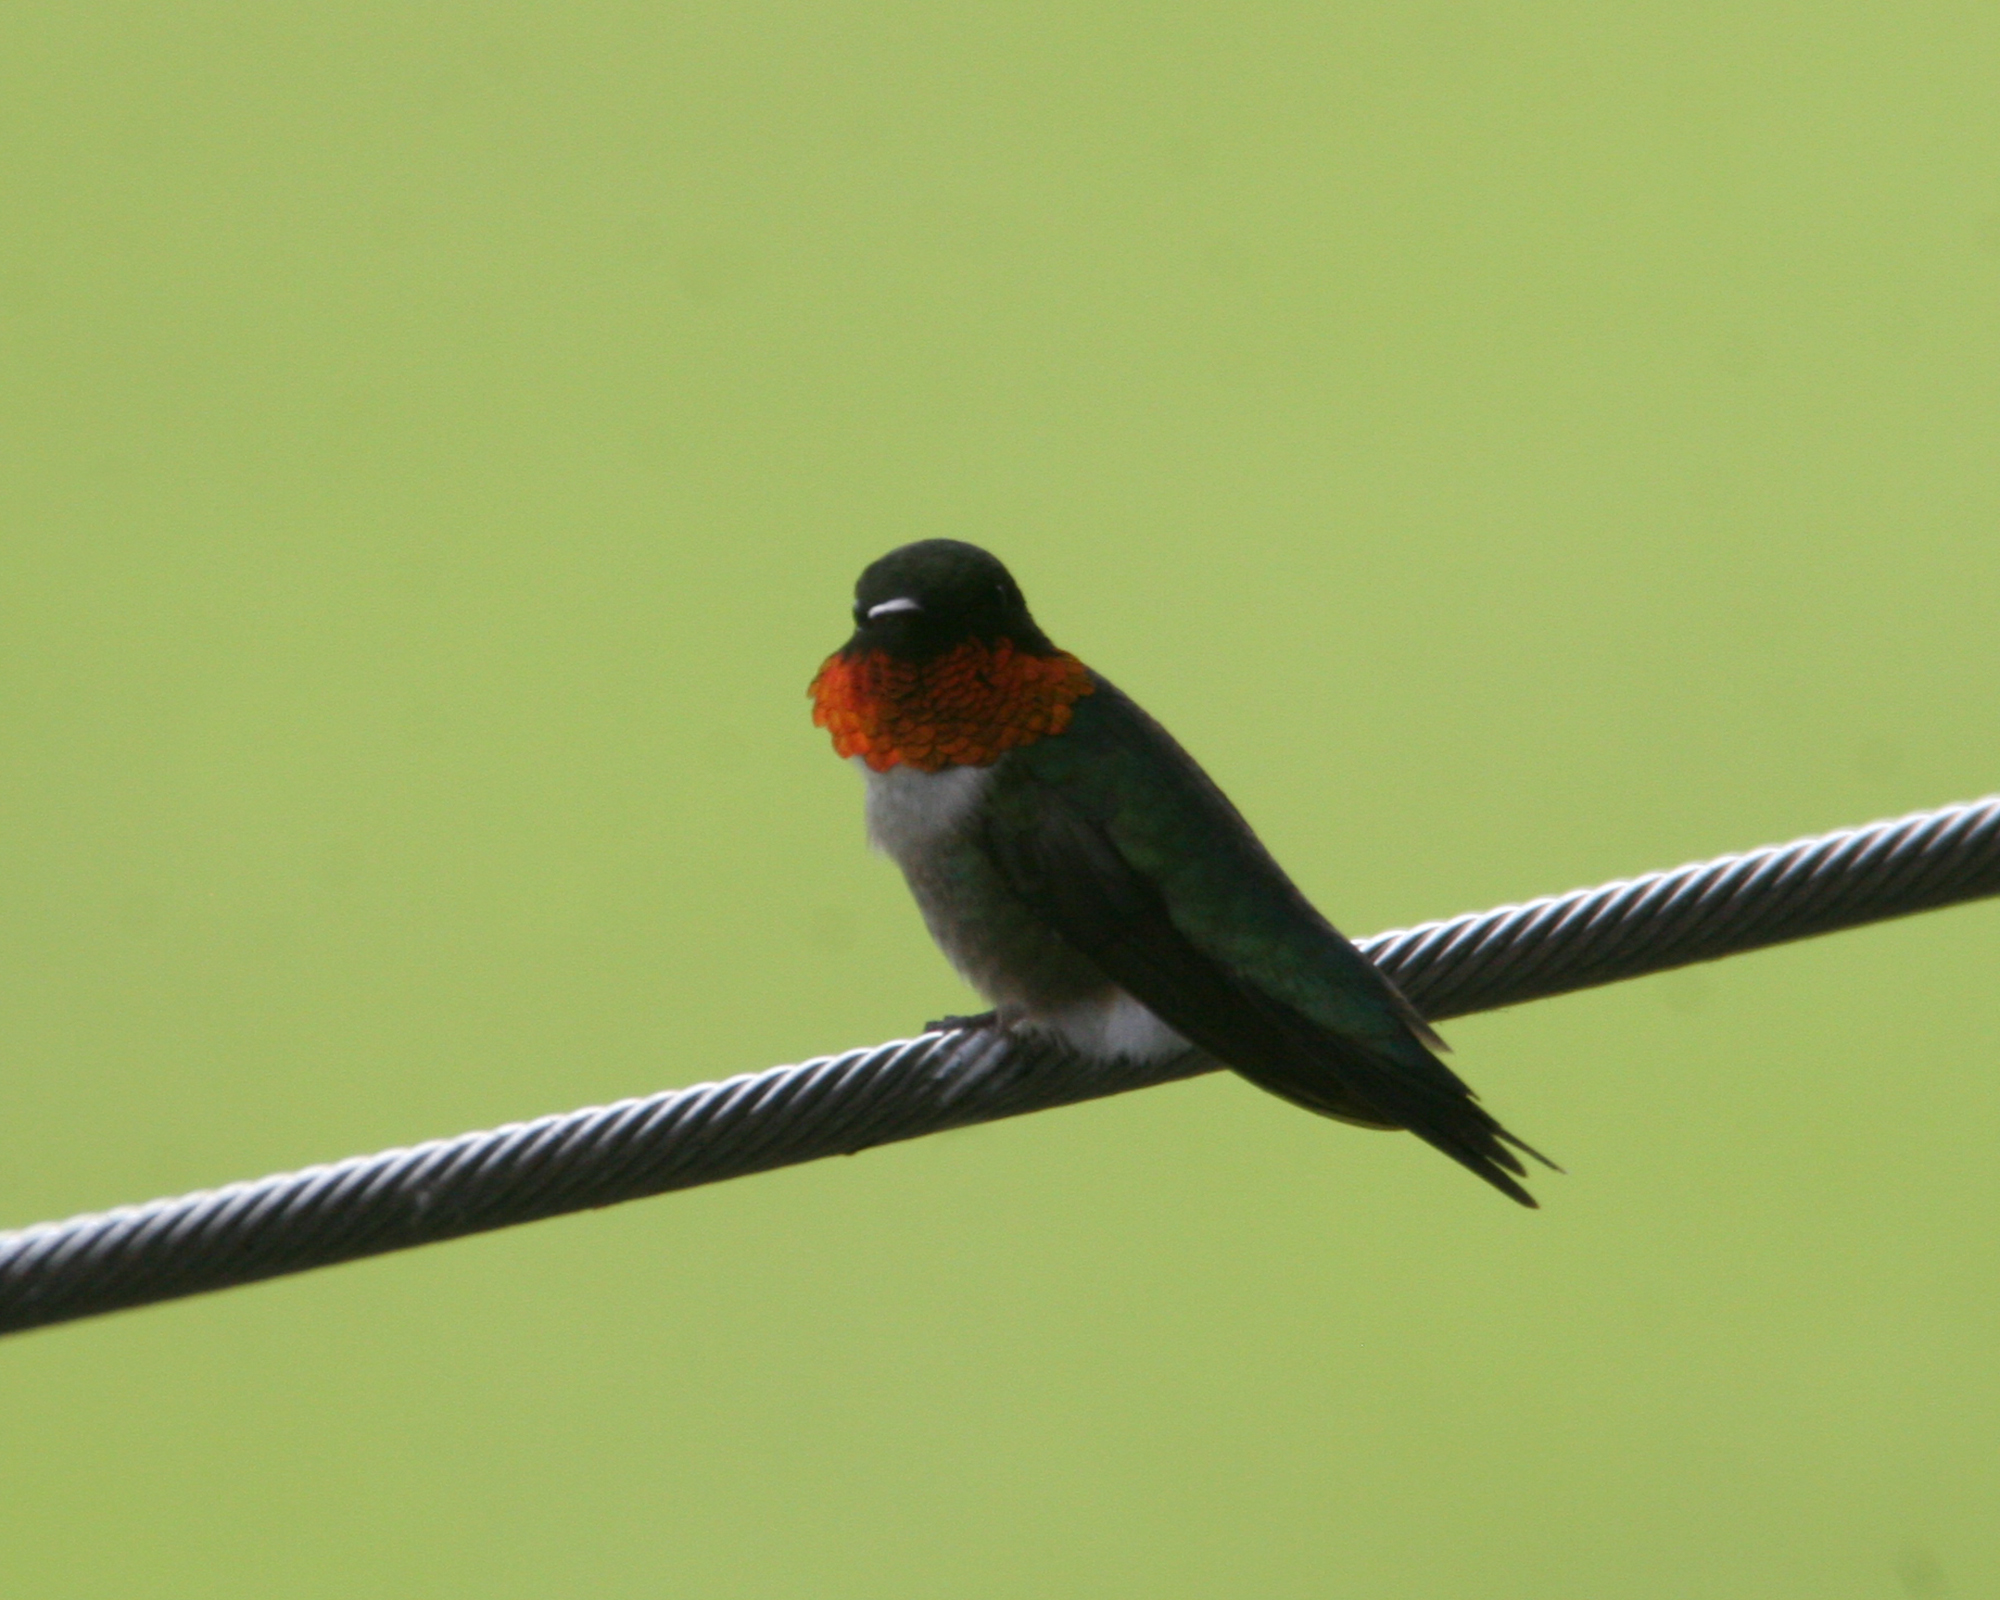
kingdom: Animalia
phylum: Chordata
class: Aves
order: Apodiformes
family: Trochilidae
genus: Archilochus
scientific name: Archilochus colubris
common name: Ruby-throated hummingbird
